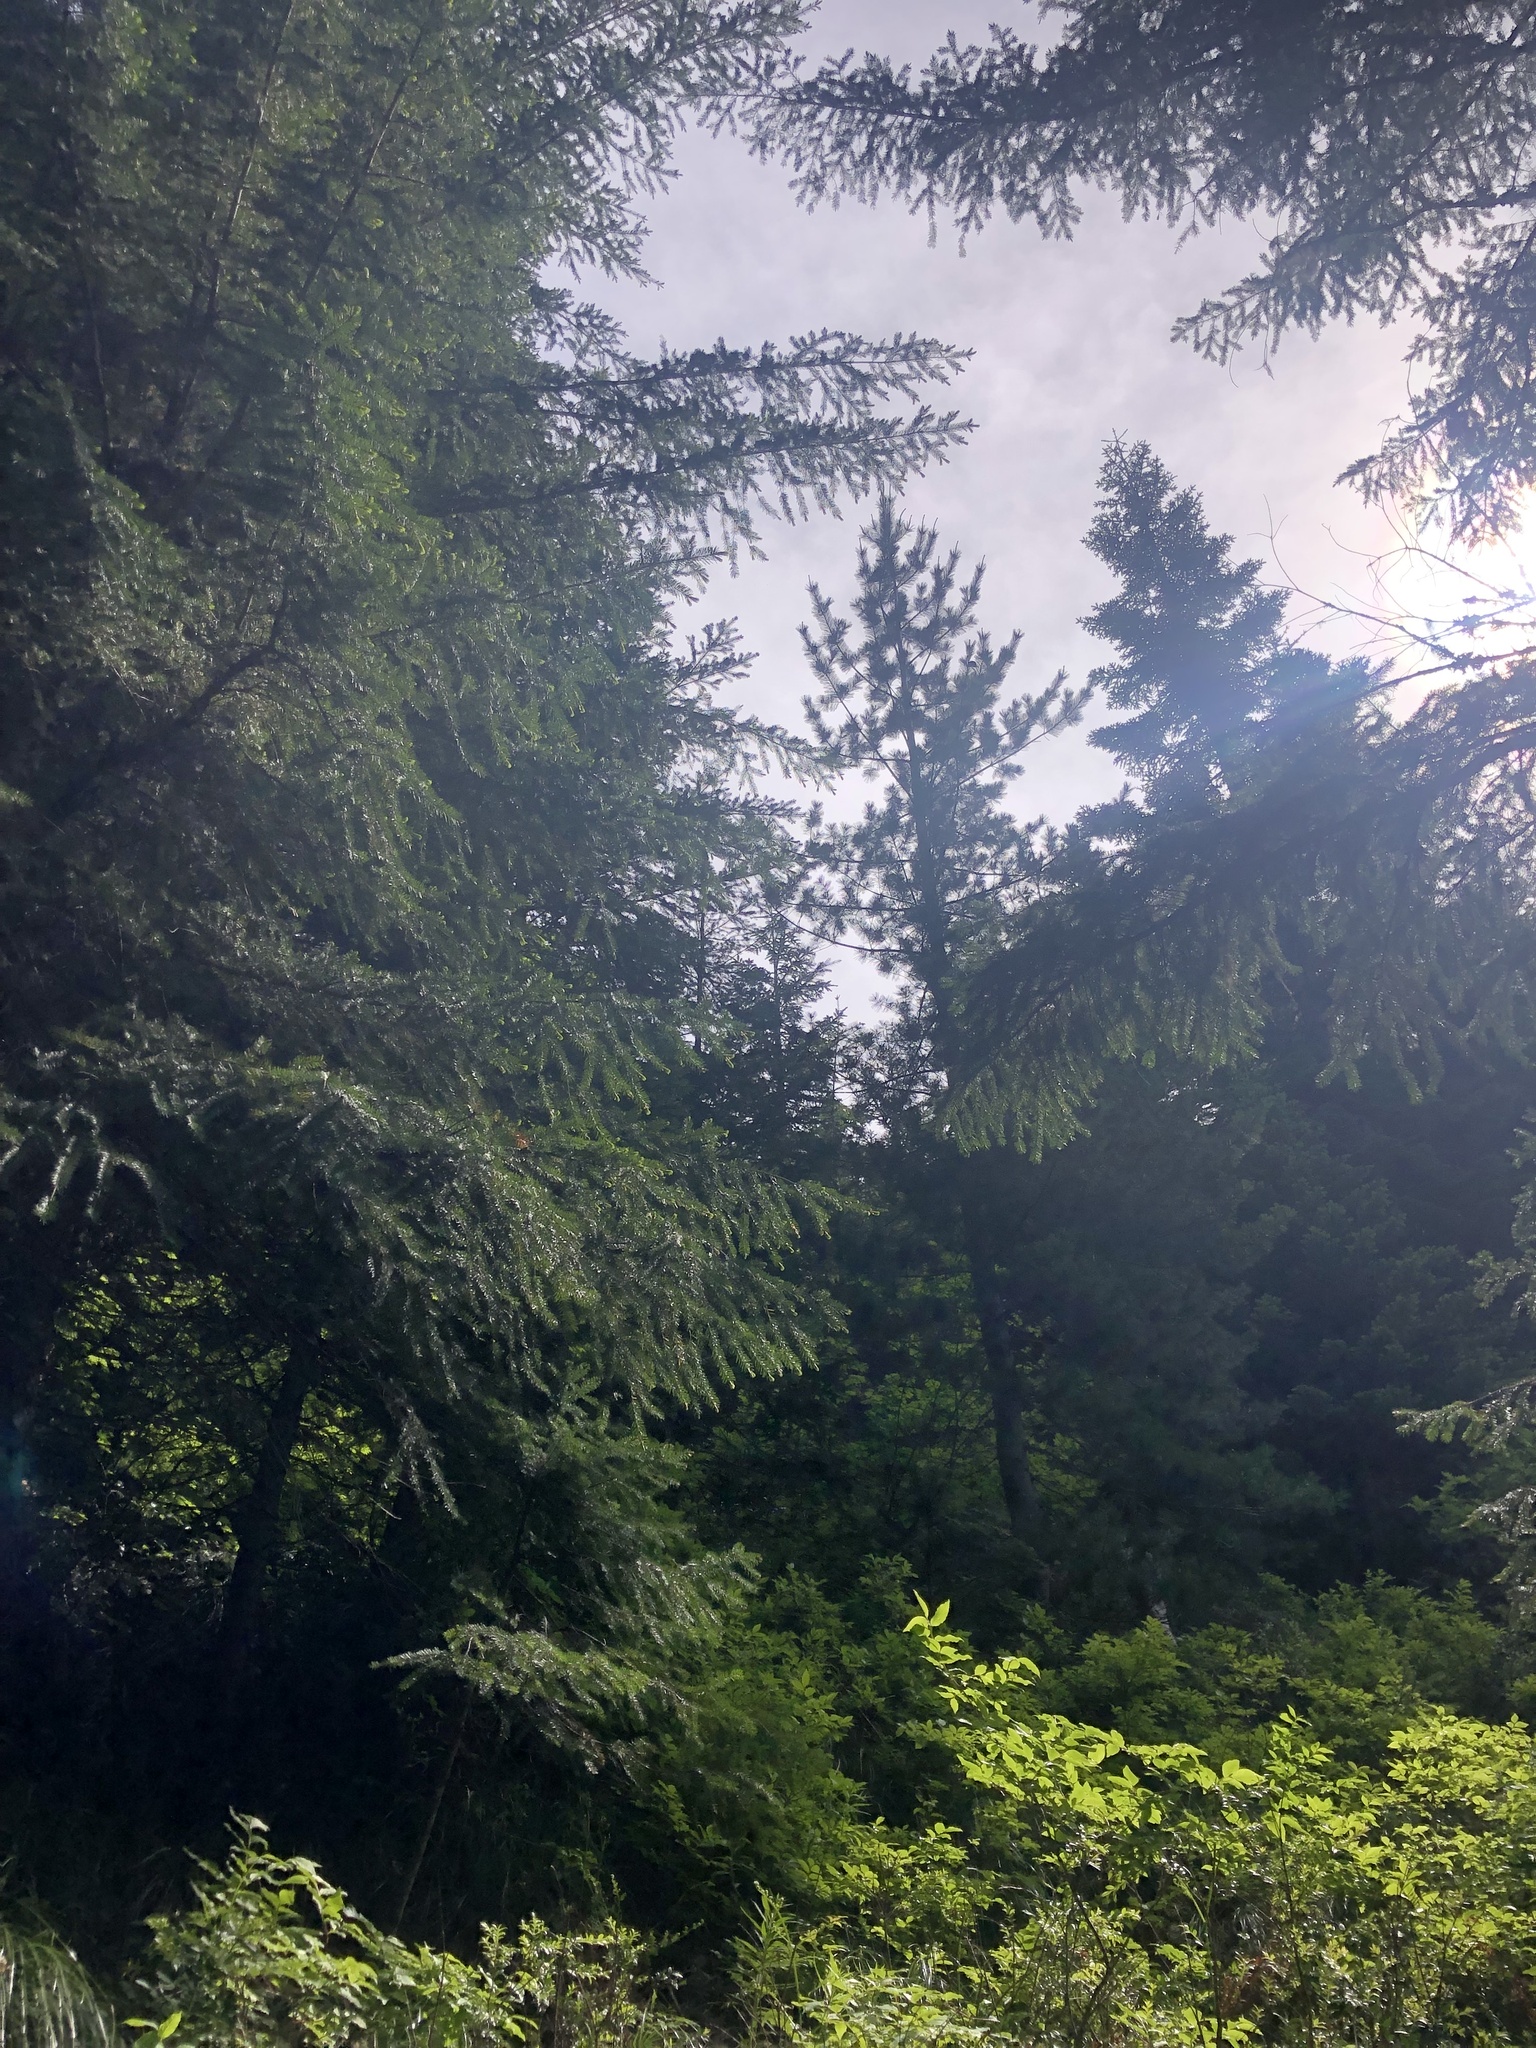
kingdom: Plantae
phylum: Tracheophyta
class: Pinopsida
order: Pinales
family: Pinaceae
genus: Pinus
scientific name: Pinus monticola
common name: Western white pine
